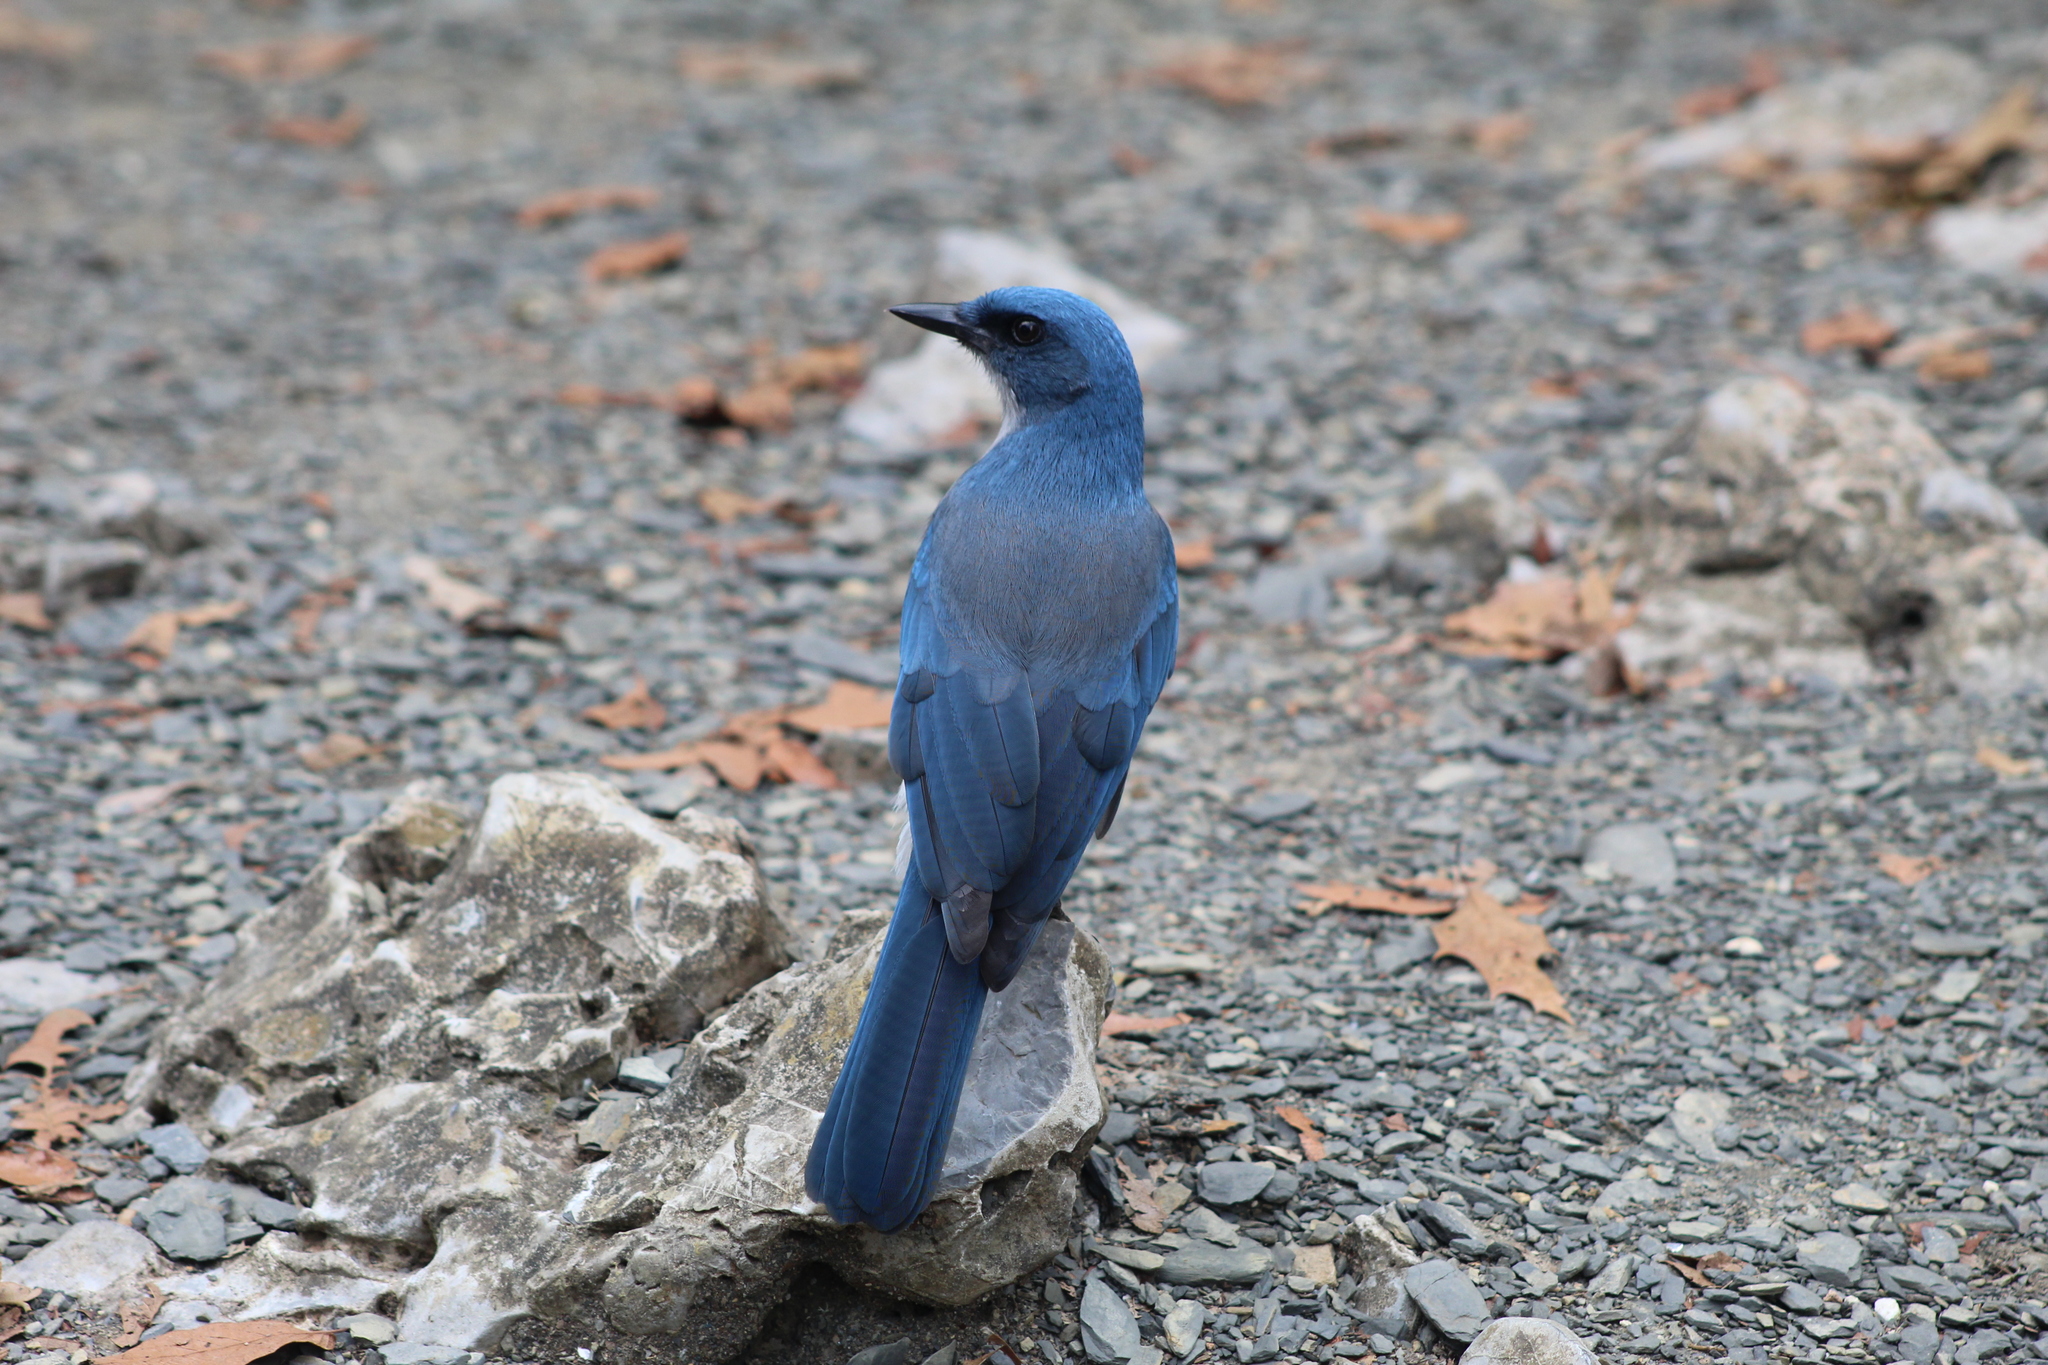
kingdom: Animalia
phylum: Chordata
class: Aves
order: Passeriformes
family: Corvidae
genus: Aphelocoma
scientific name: Aphelocoma wollweberi
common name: Mexican jay
